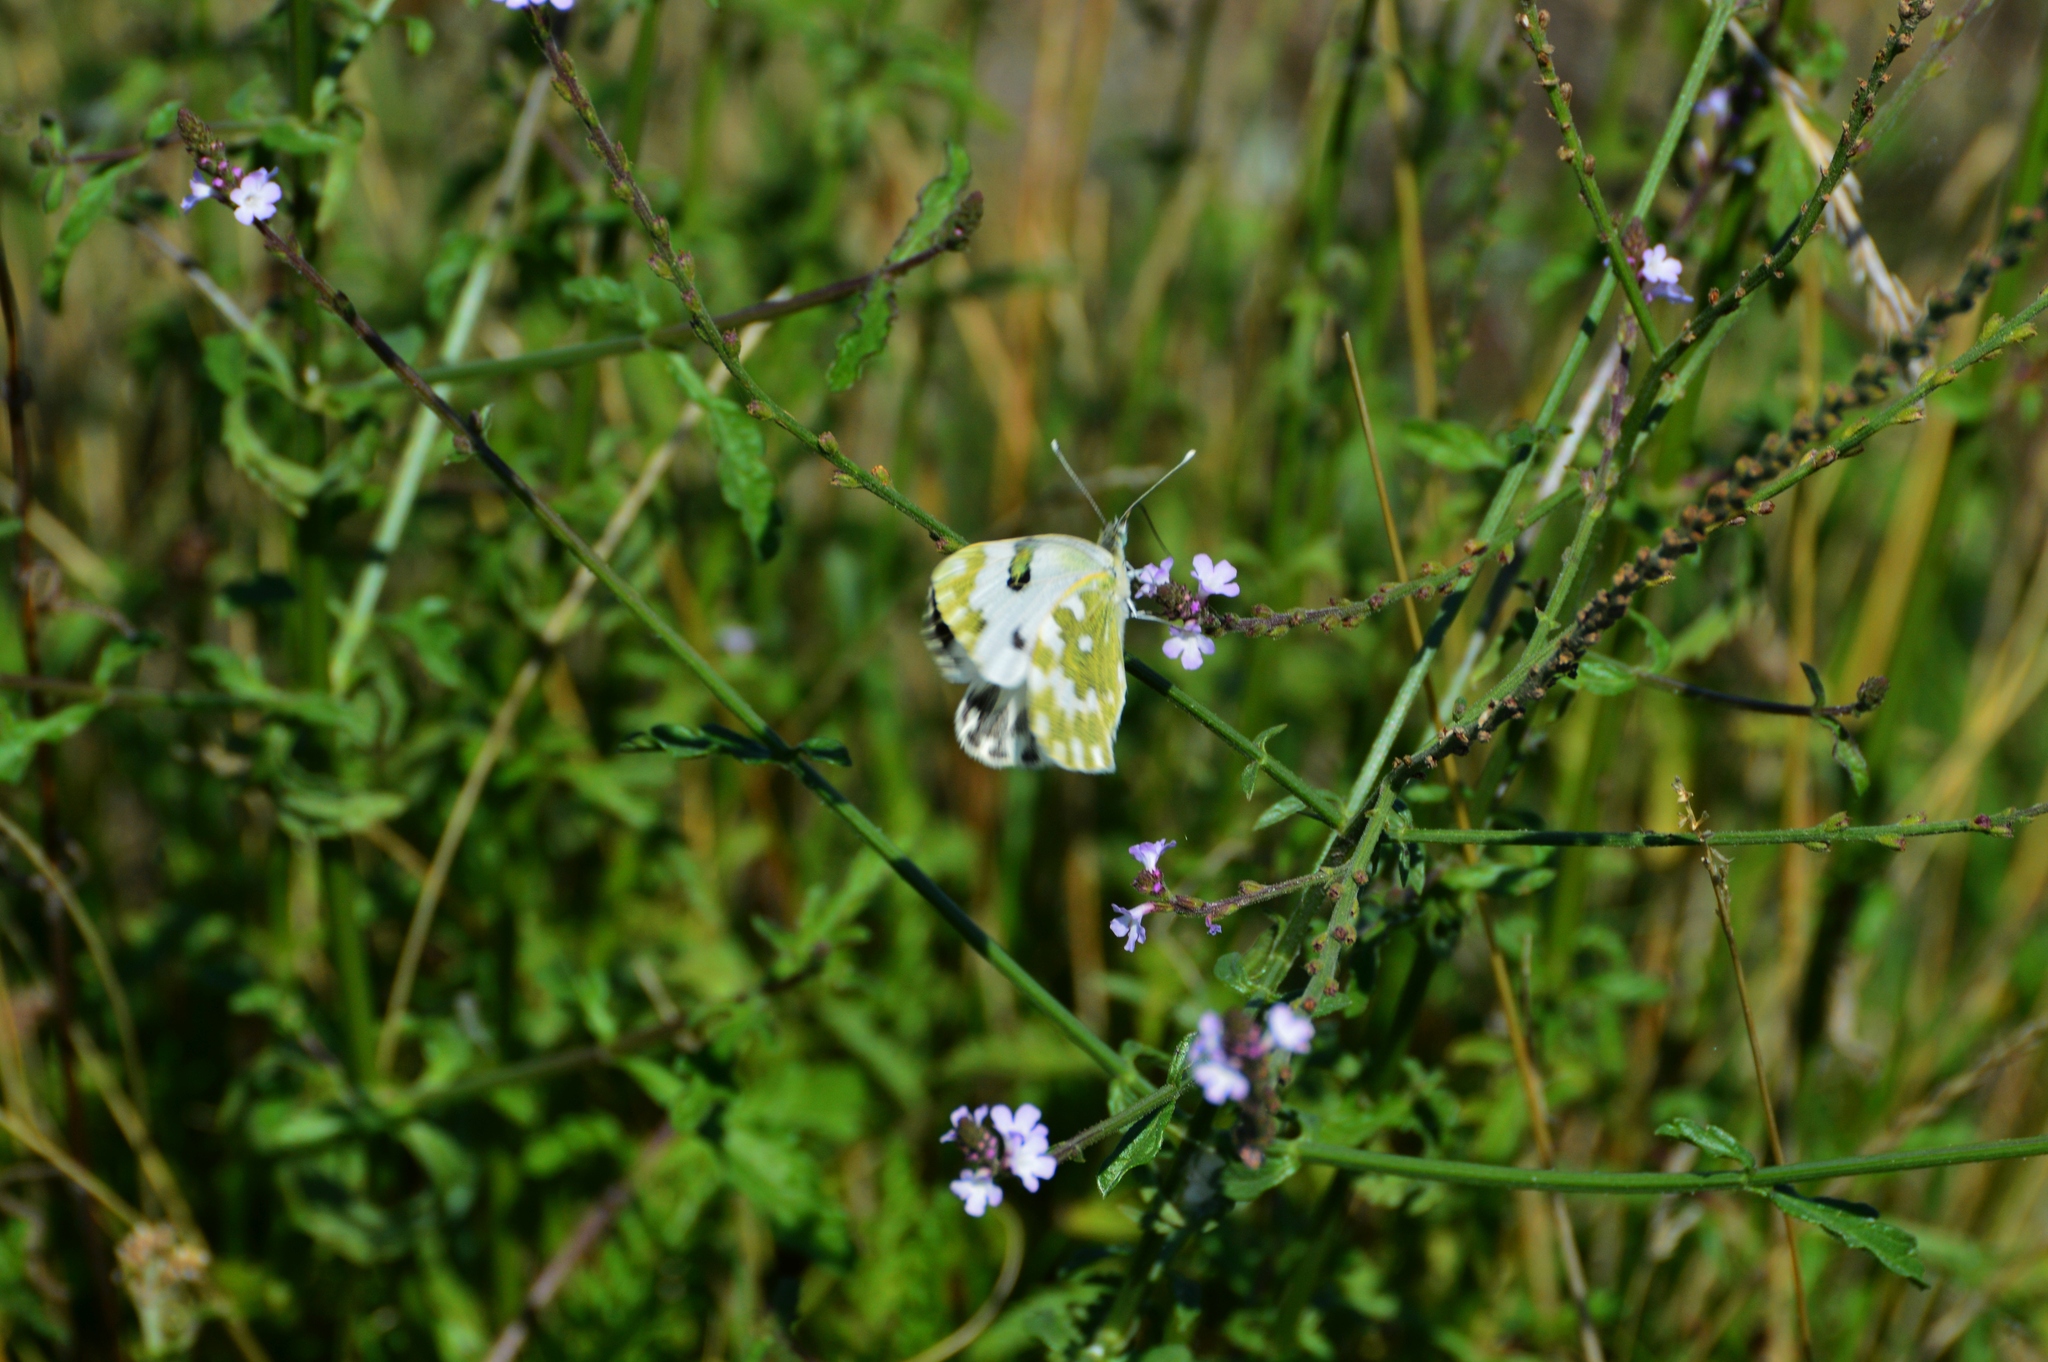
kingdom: Animalia
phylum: Arthropoda
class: Insecta
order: Lepidoptera
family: Pieridae
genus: Pontia
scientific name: Pontia edusa
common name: Eastern bath white
